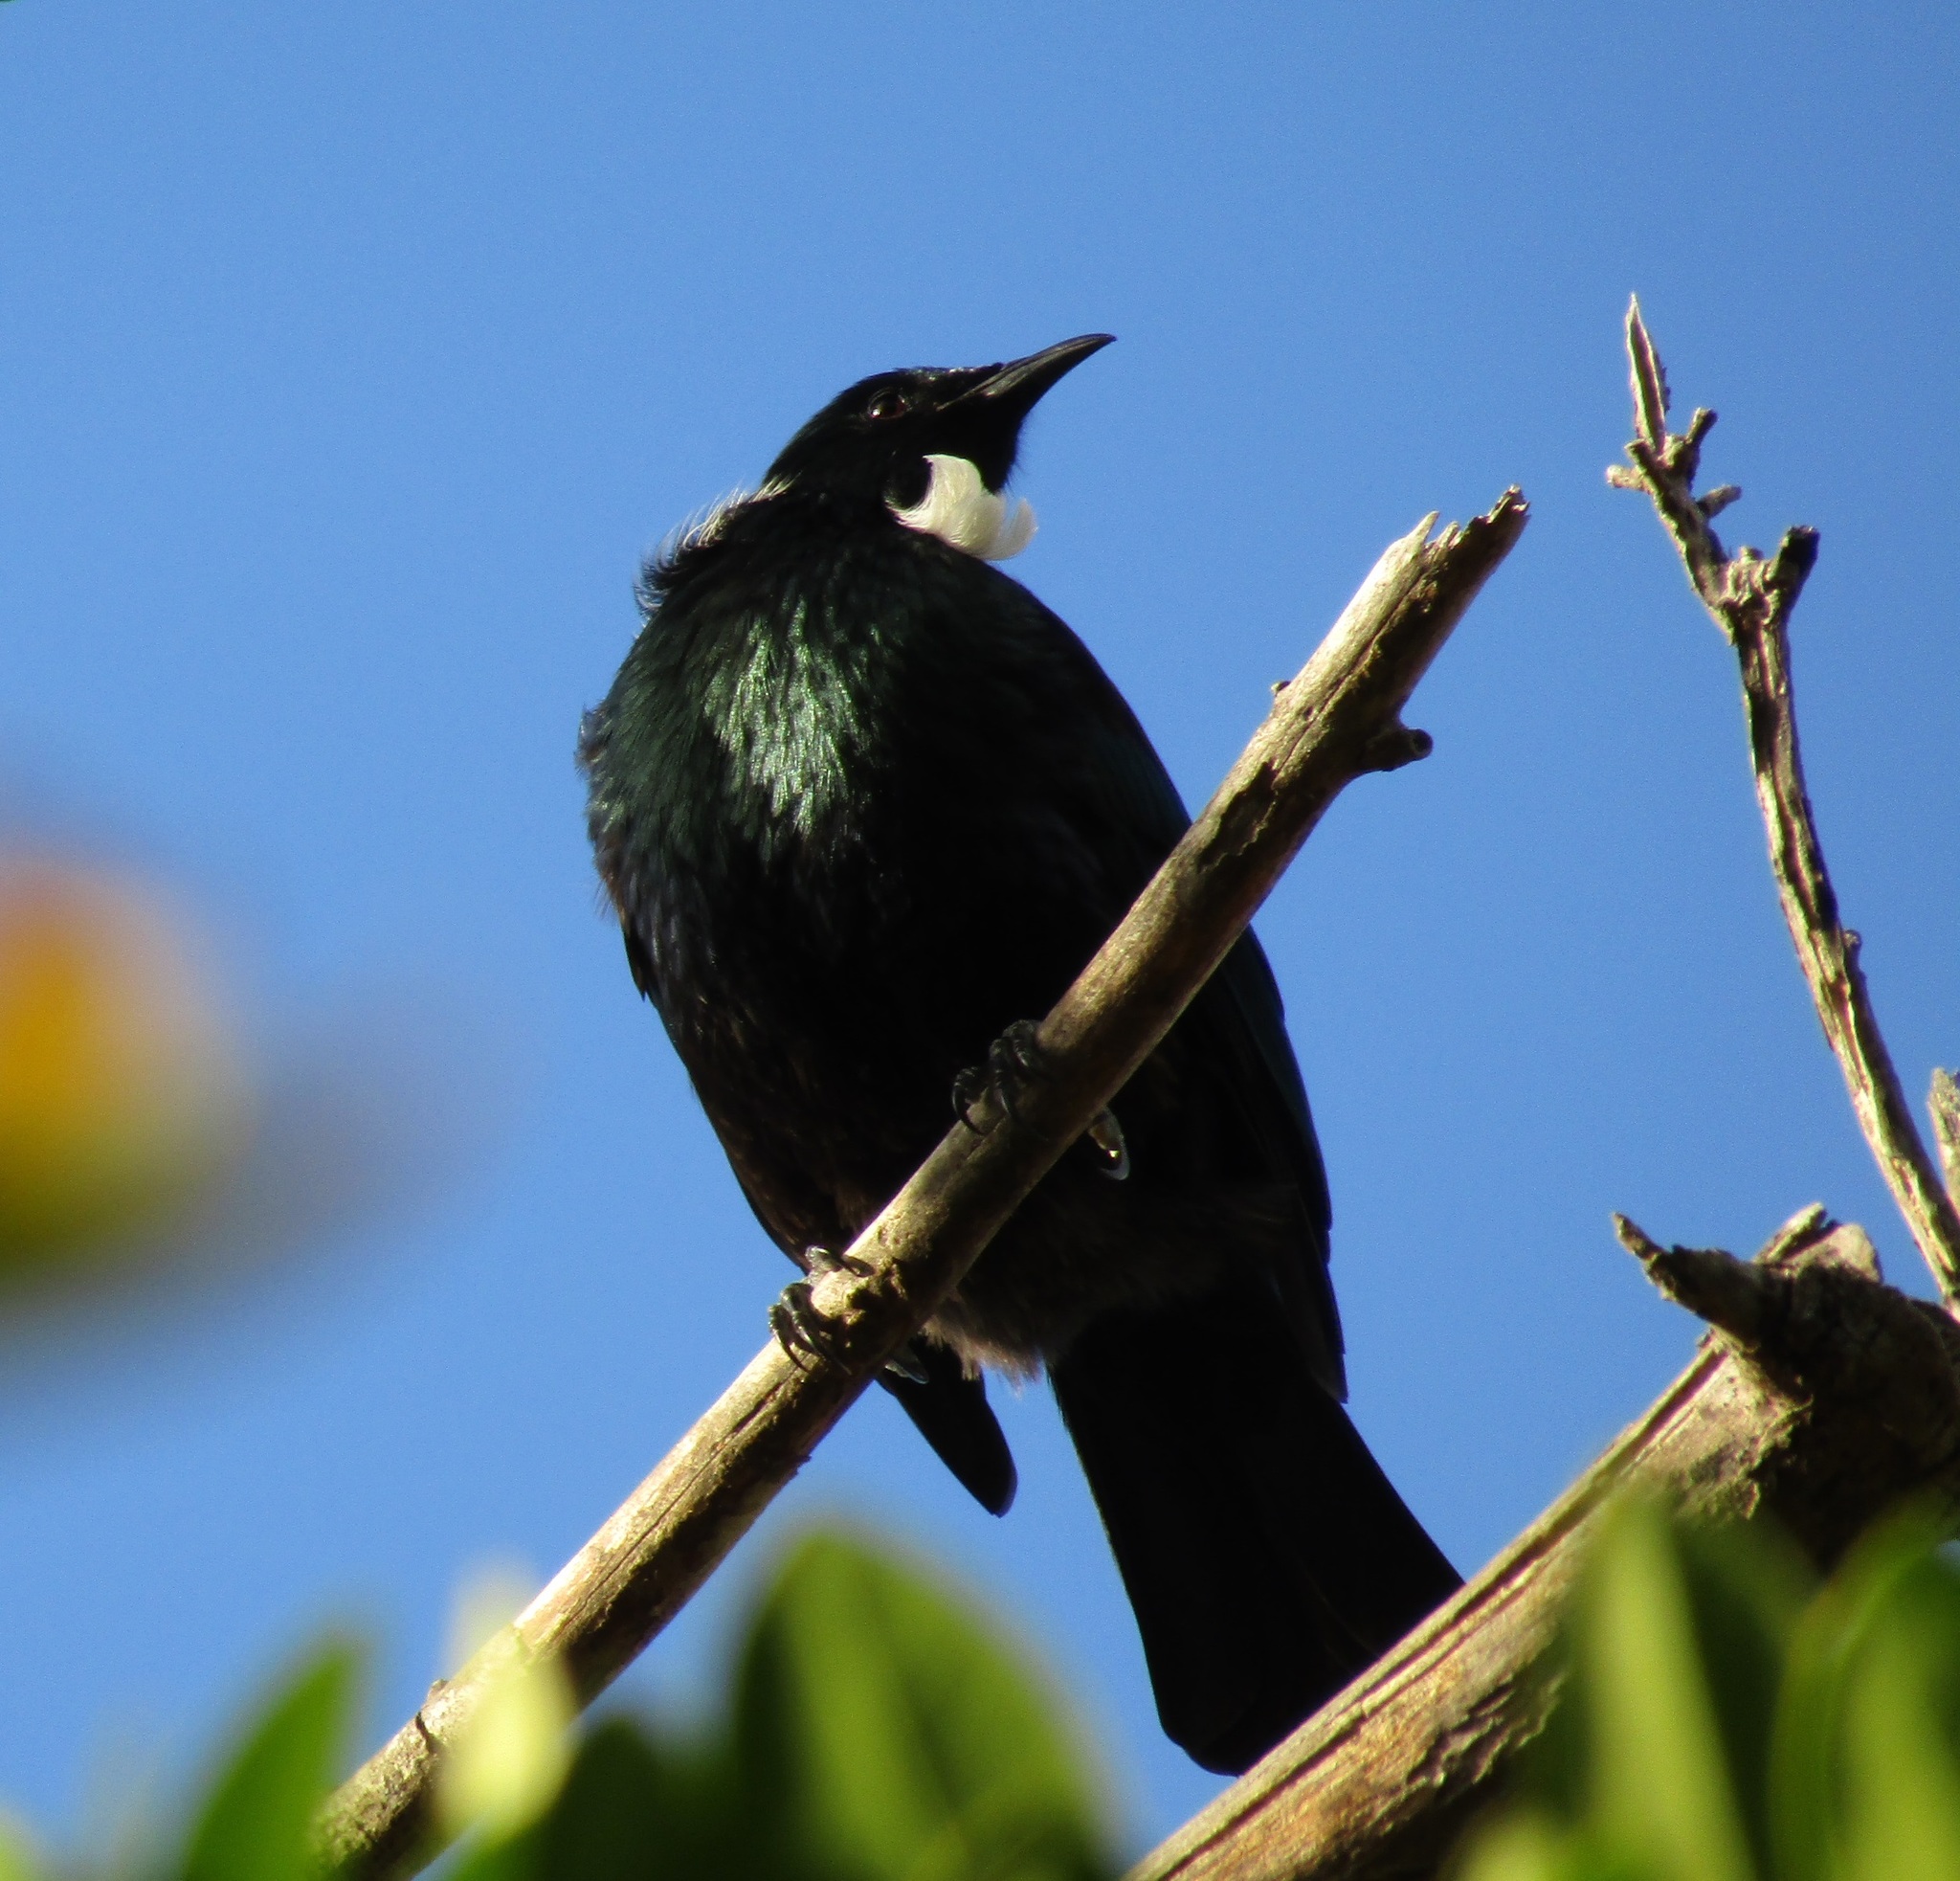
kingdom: Animalia
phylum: Chordata
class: Aves
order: Passeriformes
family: Meliphagidae
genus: Prosthemadera
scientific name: Prosthemadera novaeseelandiae
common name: Tui
